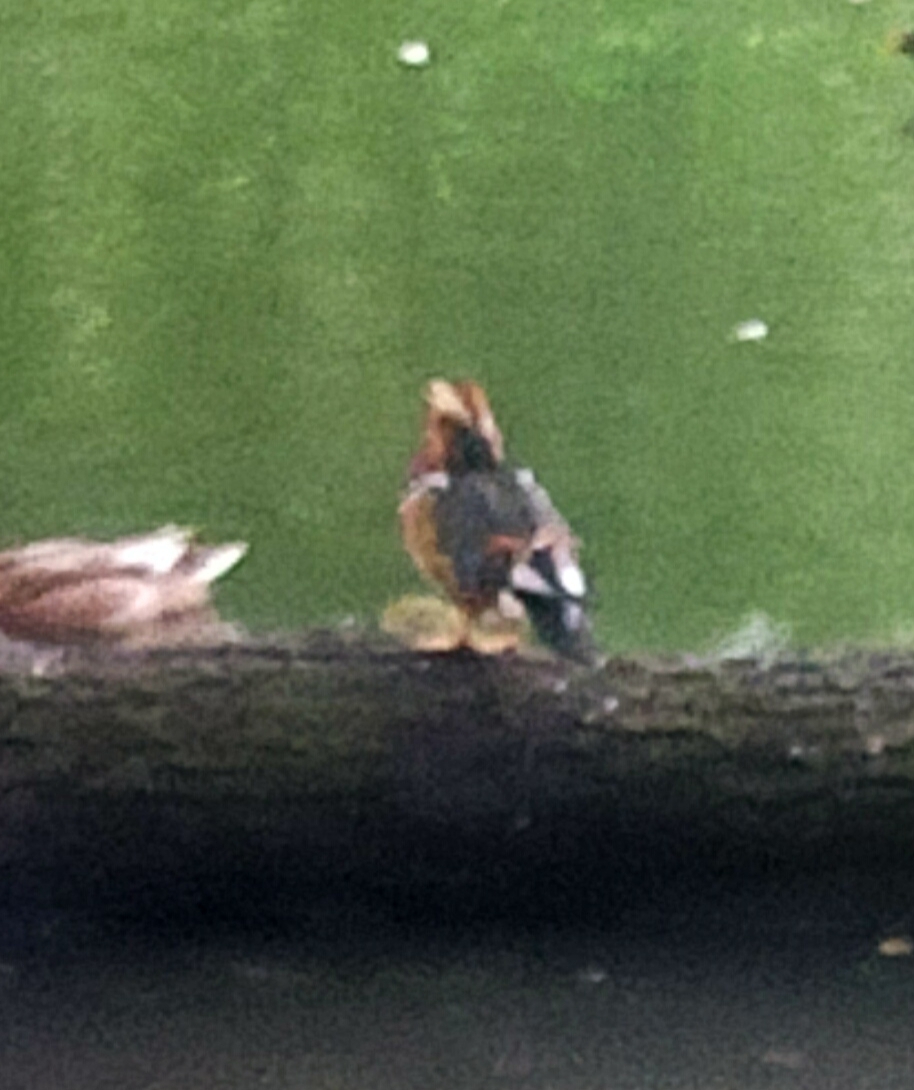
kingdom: Animalia
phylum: Chordata
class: Aves
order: Anseriformes
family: Anatidae
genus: Aix
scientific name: Aix galericulata
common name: Mandarin duck
